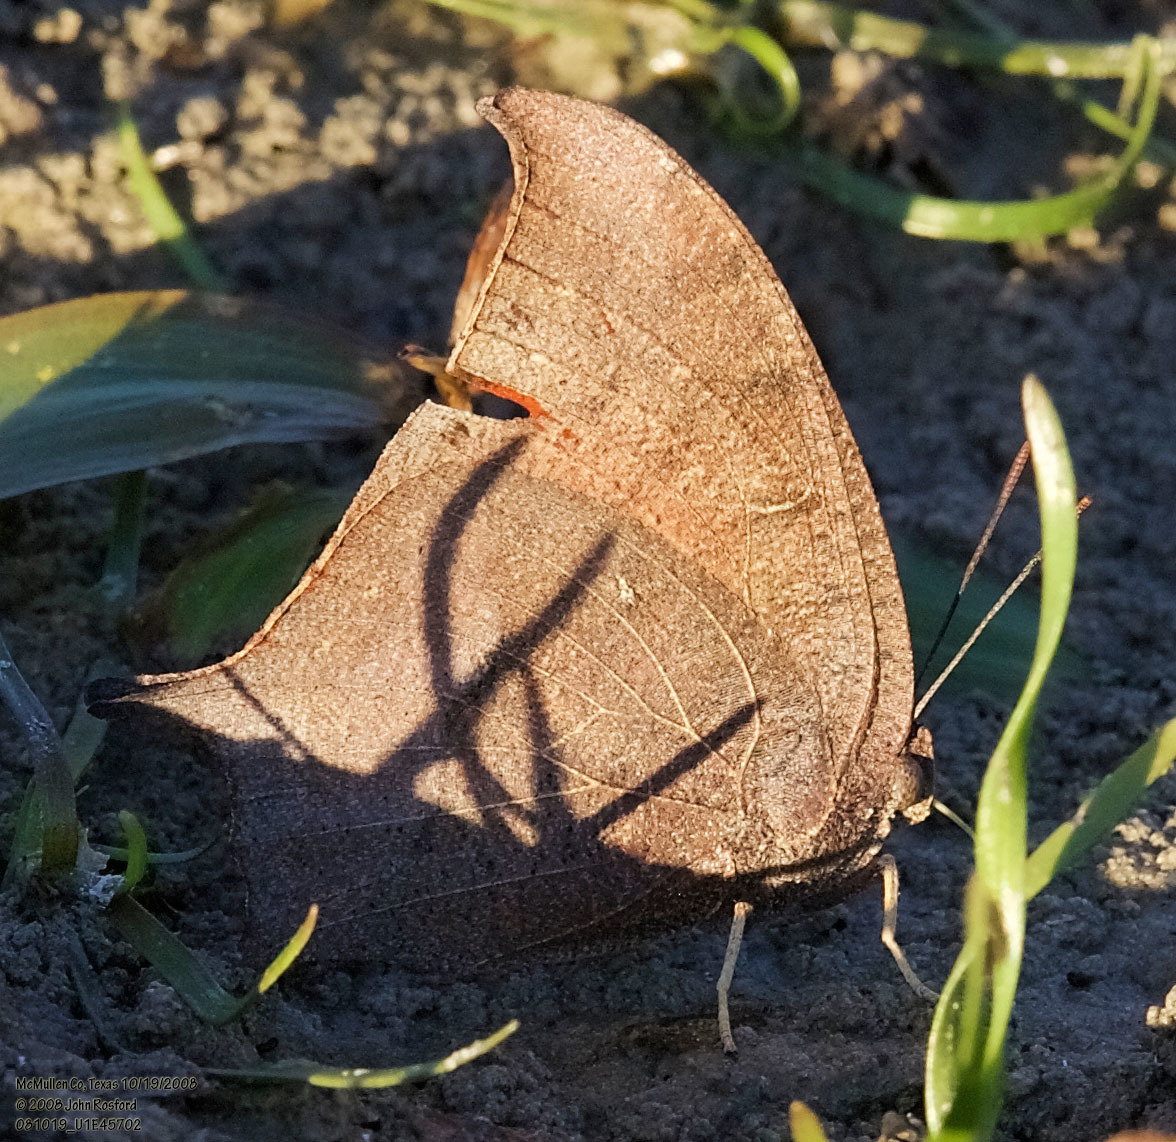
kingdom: Animalia
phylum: Arthropoda
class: Insecta
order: Lepidoptera
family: Nymphalidae
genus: Anaea
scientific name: Anaea andria
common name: Goatweed leafwing
